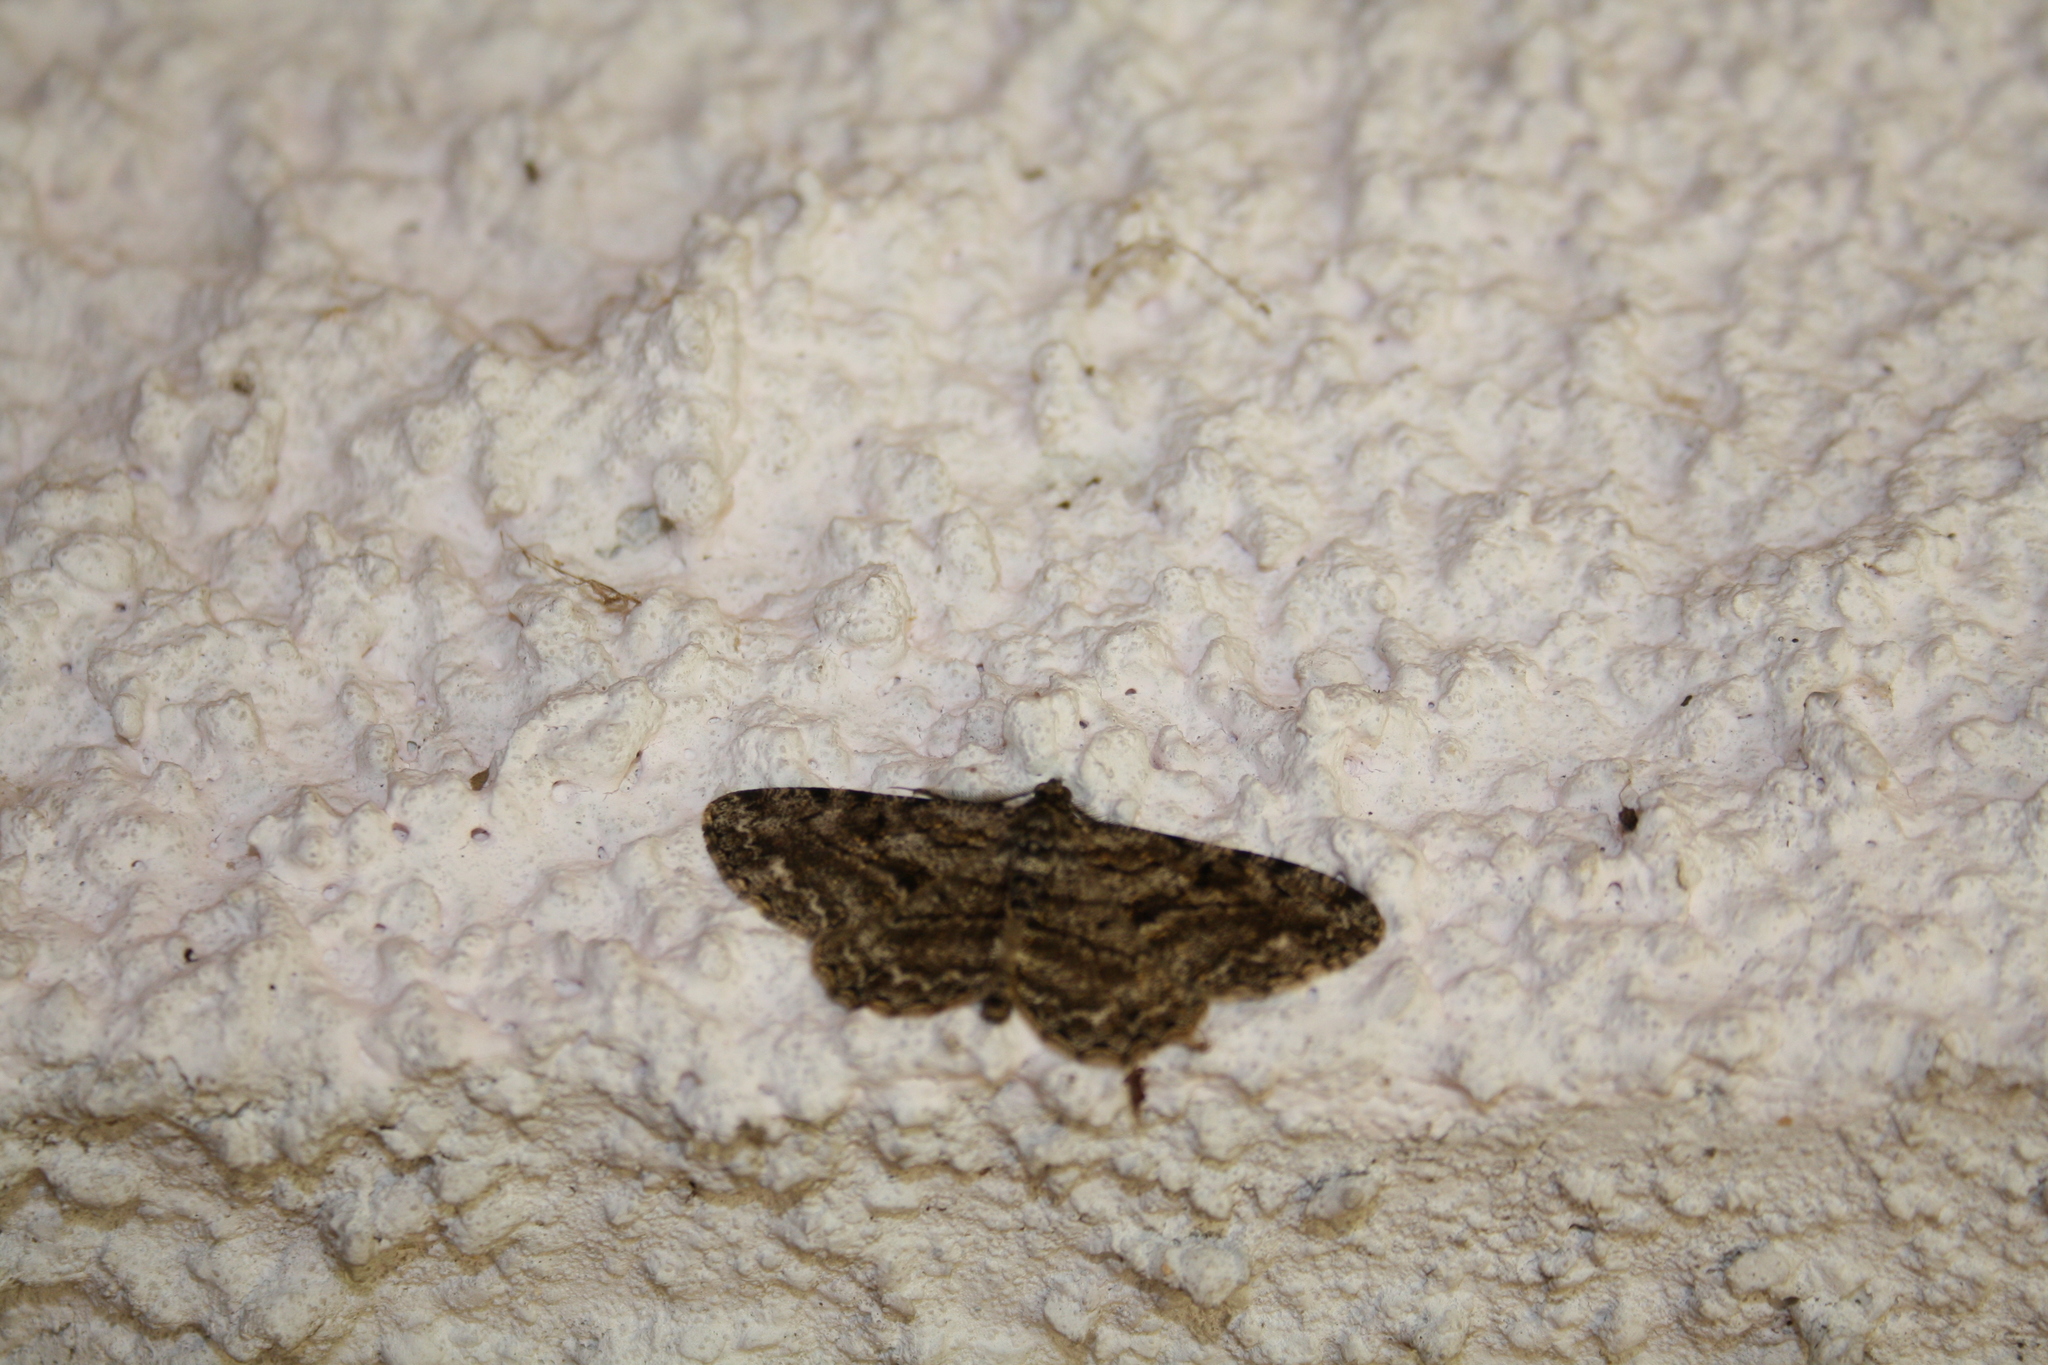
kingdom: Animalia
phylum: Arthropoda
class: Insecta
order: Lepidoptera
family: Geometridae
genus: Peribatodes
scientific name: Peribatodes rhomboidaria
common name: Willow beauty
